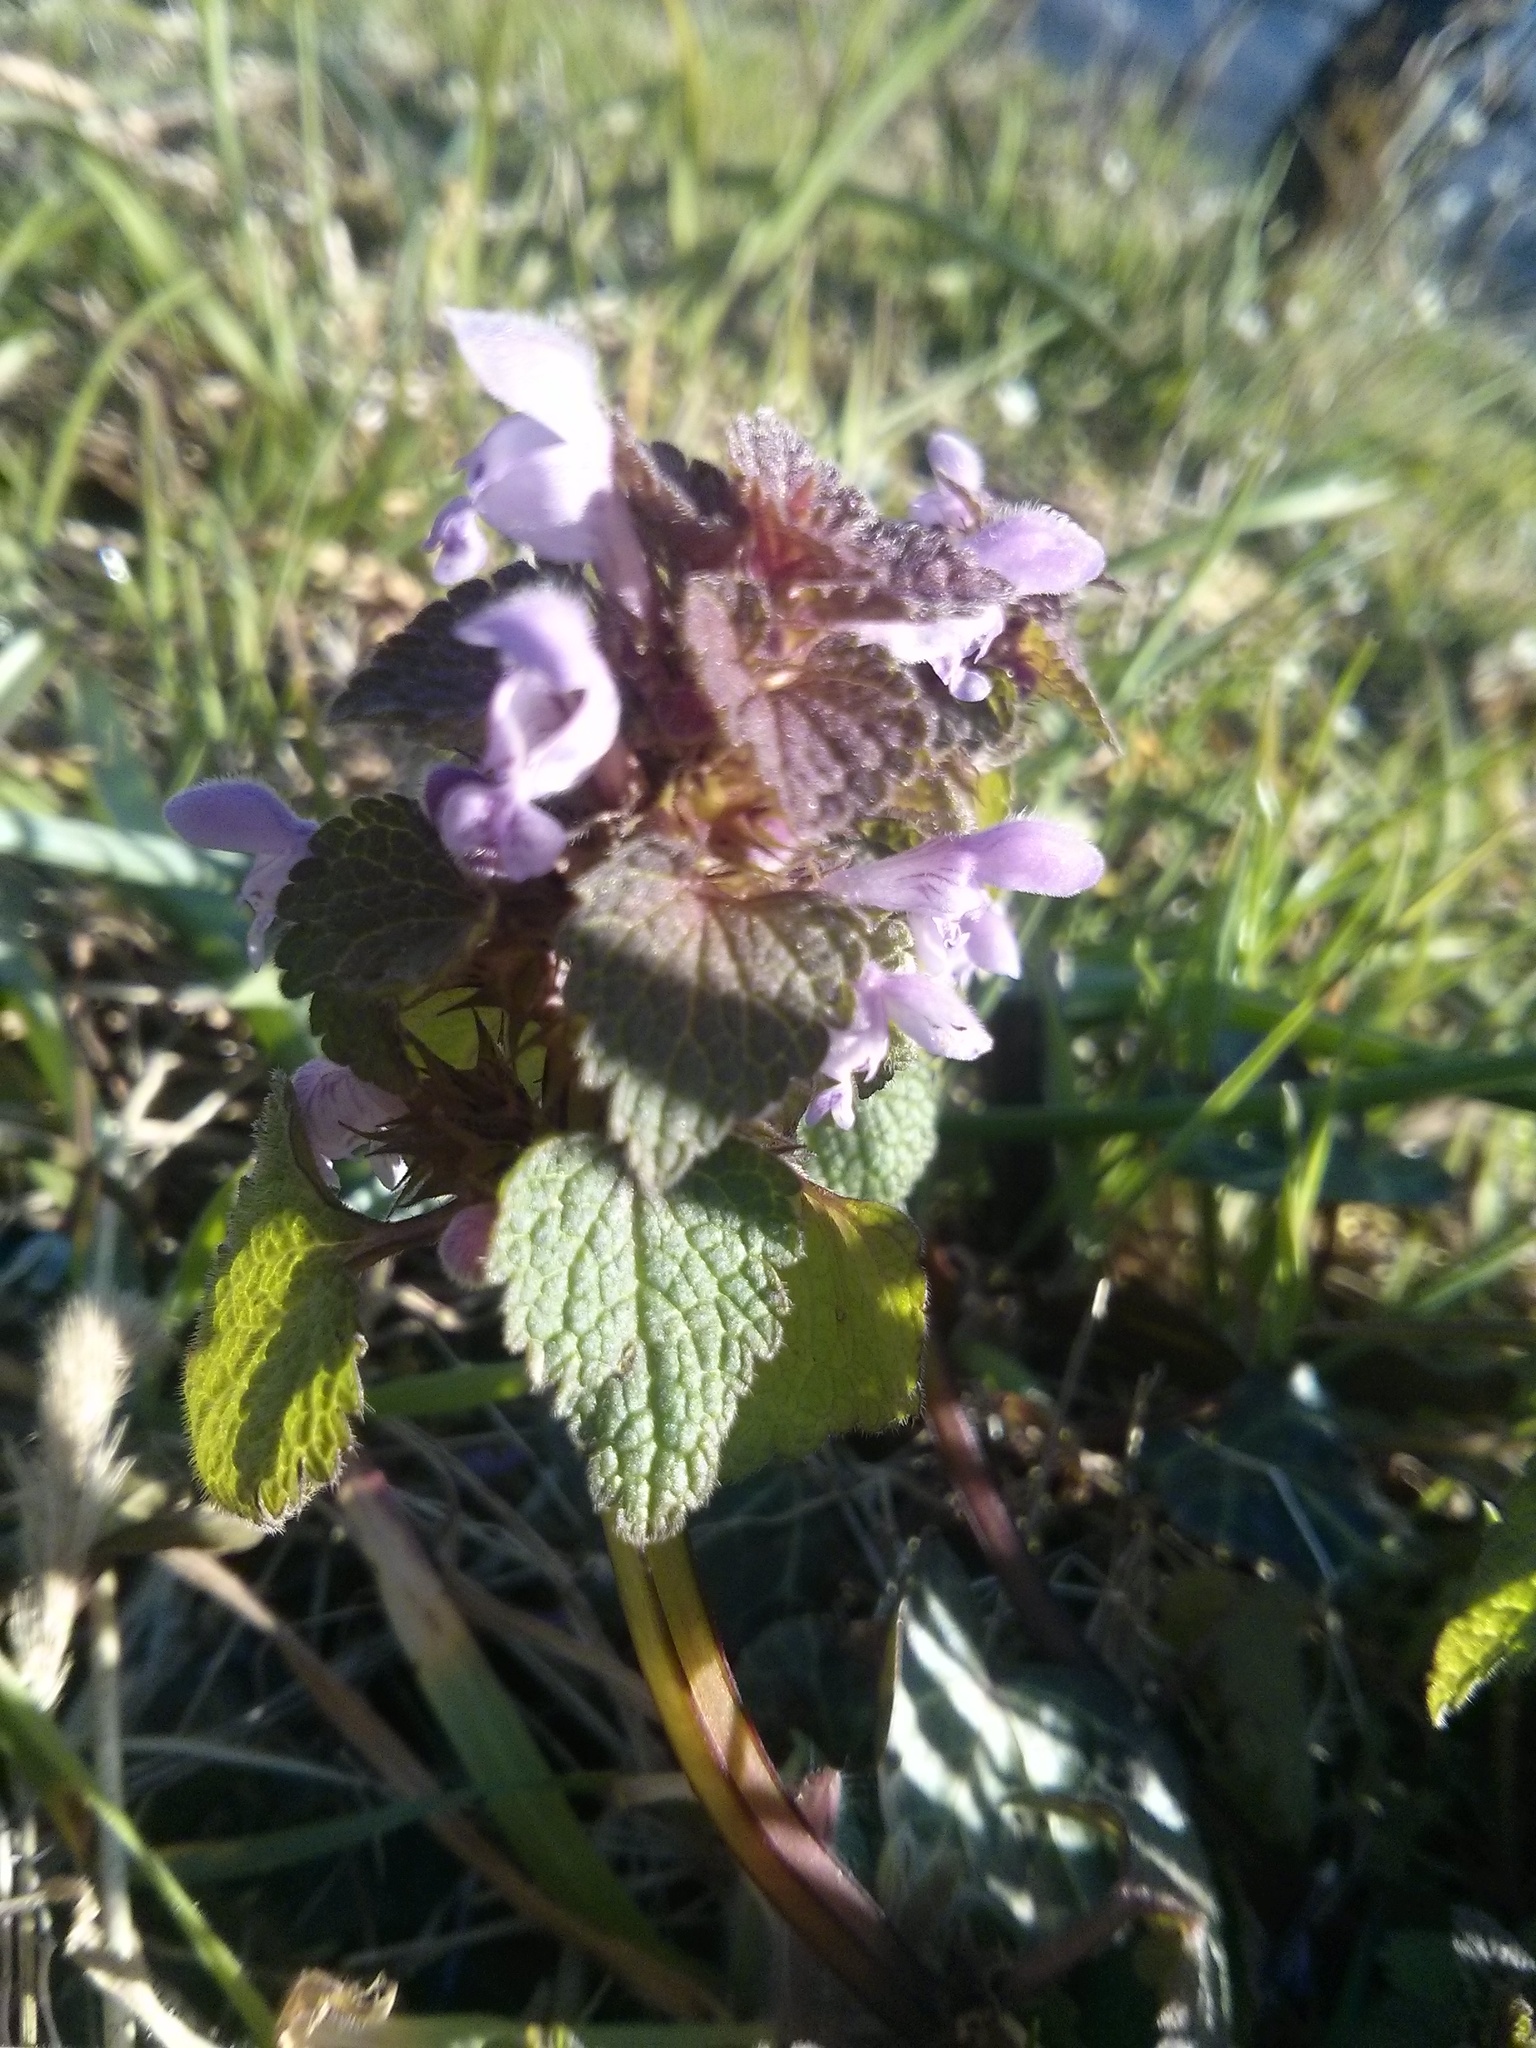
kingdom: Plantae
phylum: Tracheophyta
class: Magnoliopsida
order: Lamiales
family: Lamiaceae
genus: Lamium
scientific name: Lamium purpureum
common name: Red dead-nettle
